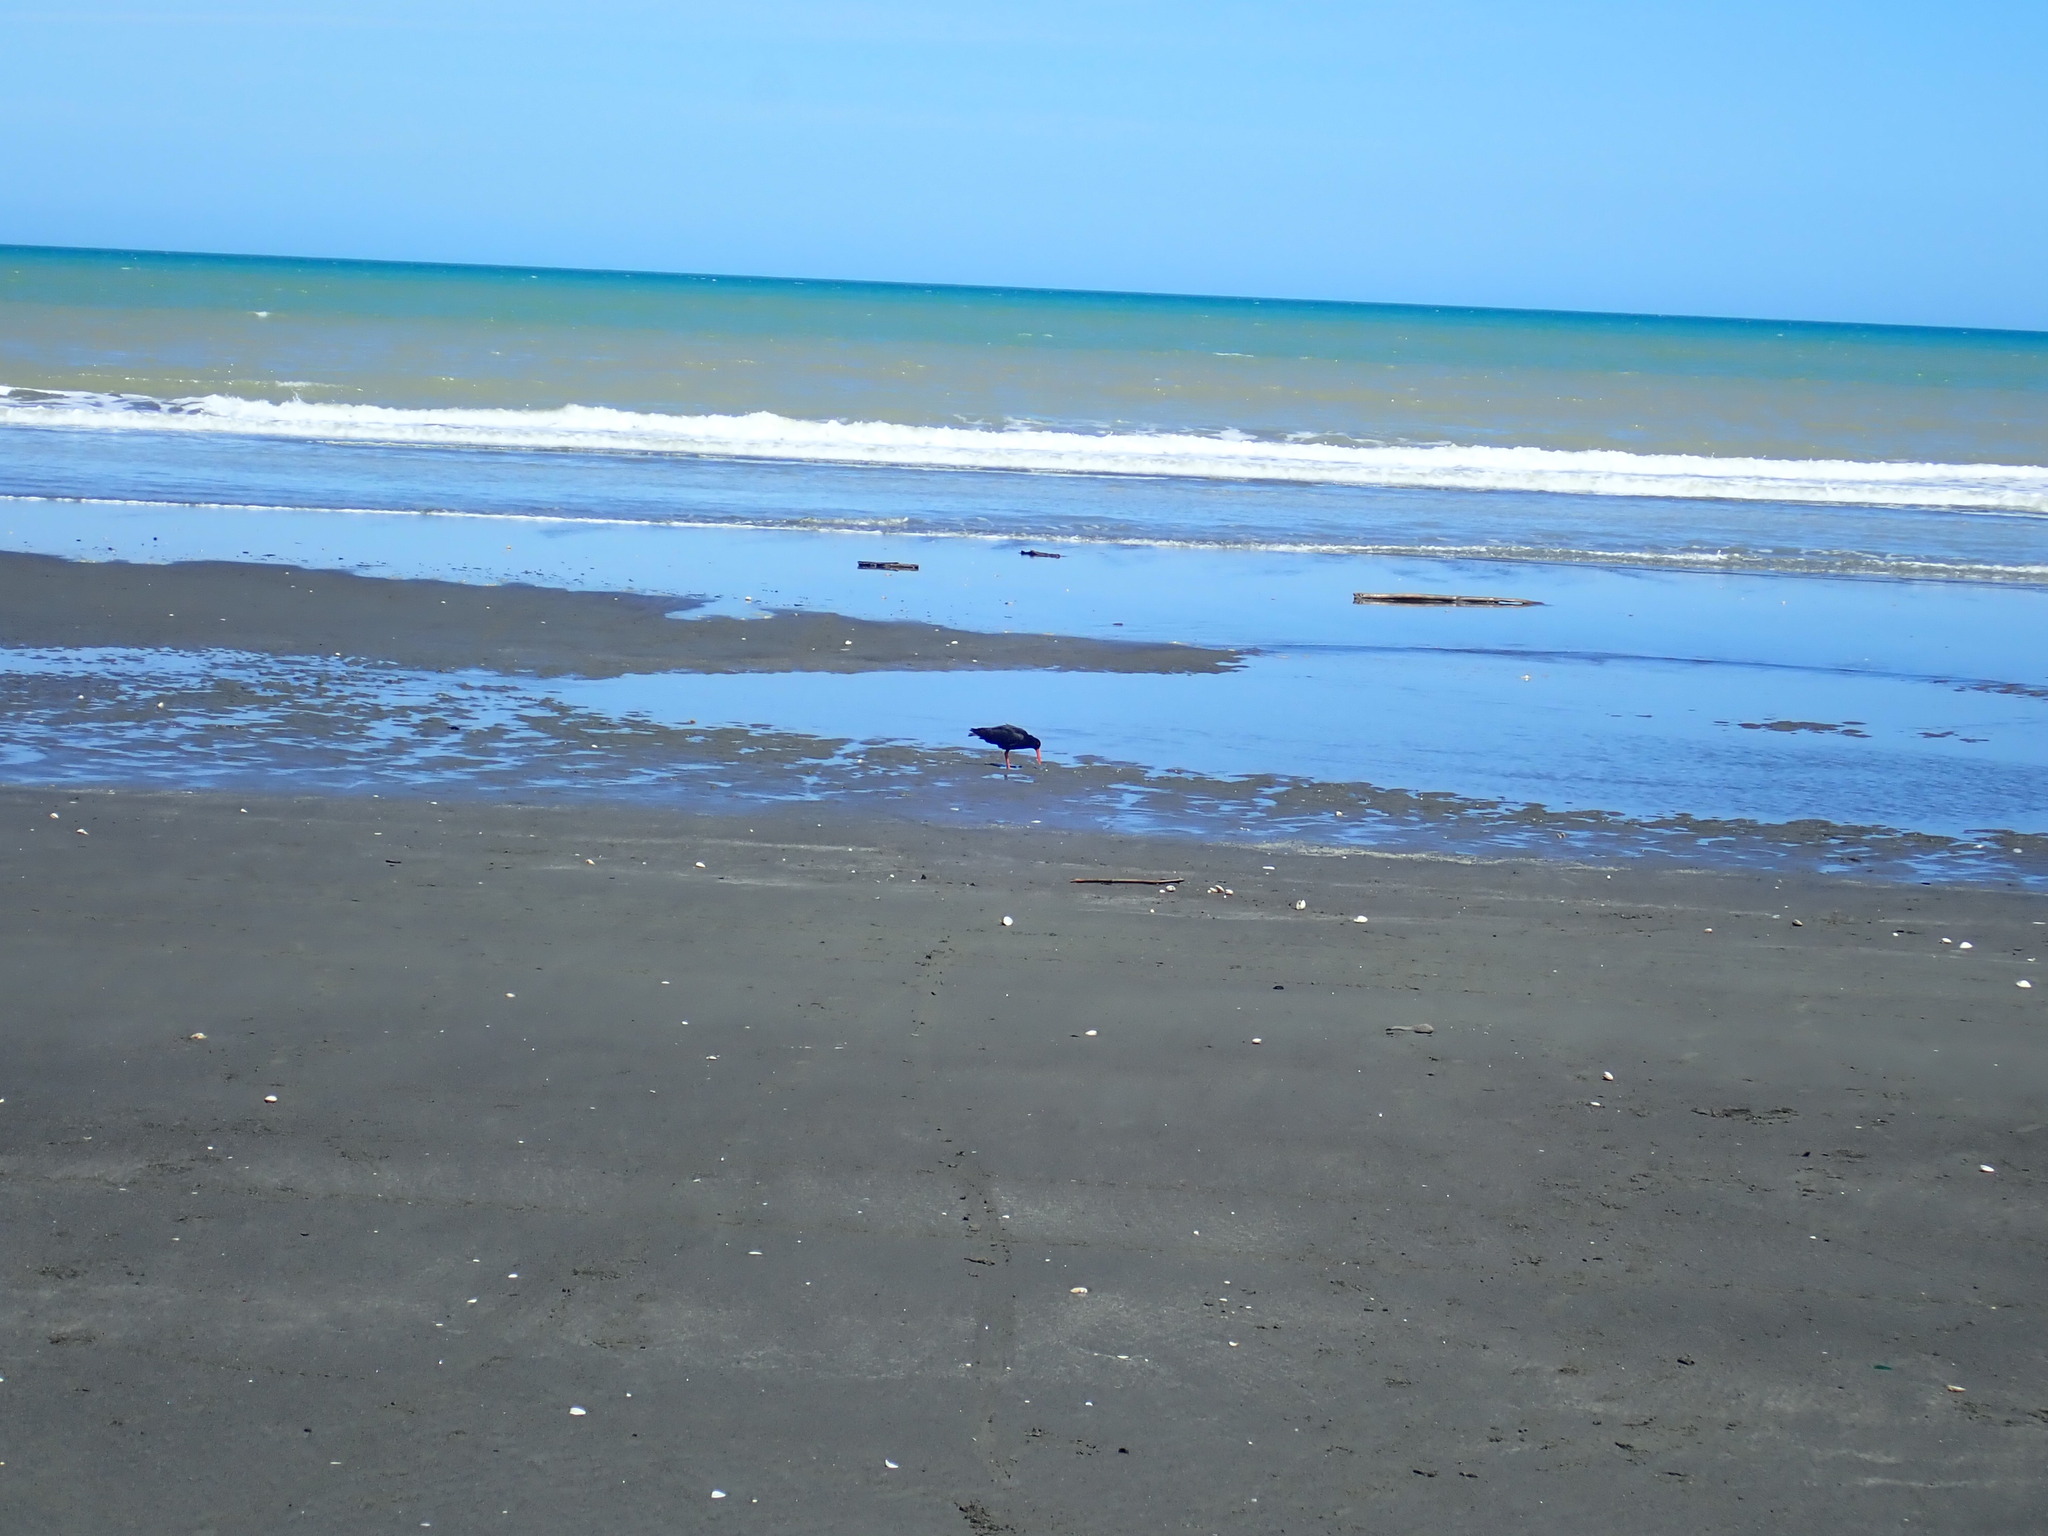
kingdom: Animalia
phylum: Chordata
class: Aves
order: Charadriiformes
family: Haematopodidae
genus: Haematopus
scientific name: Haematopus unicolor
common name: Variable oystercatcher
